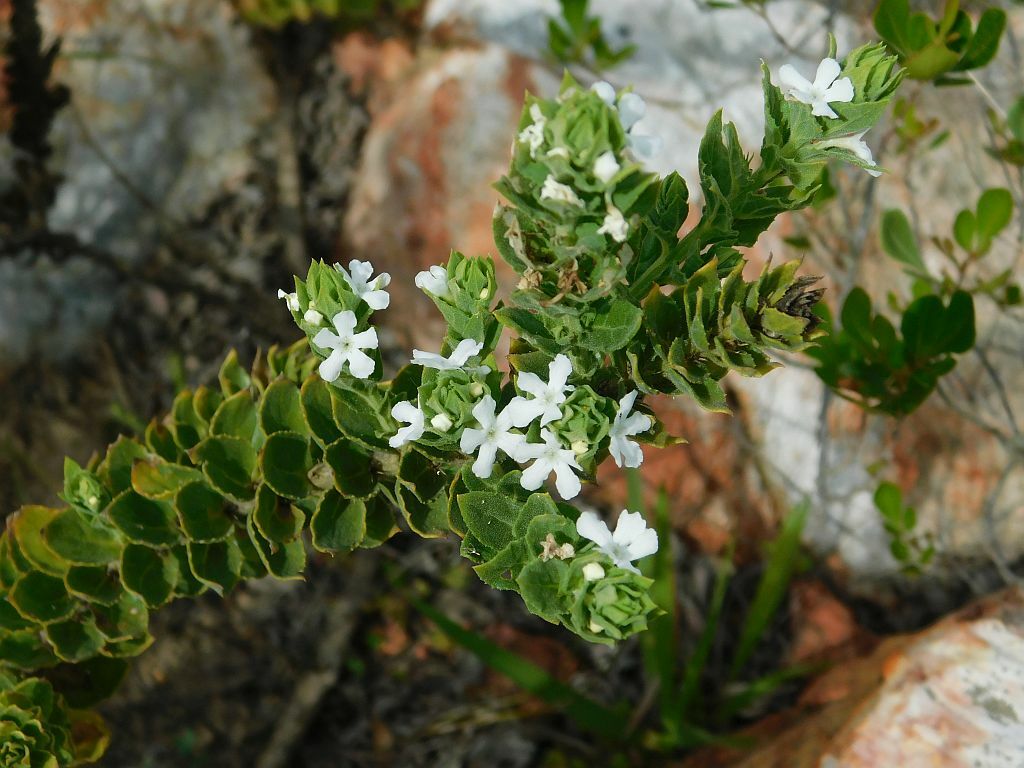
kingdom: Plantae
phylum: Tracheophyta
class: Magnoliopsida
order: Lamiales
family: Scrophulariaceae
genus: Oftia
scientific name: Oftia africana
